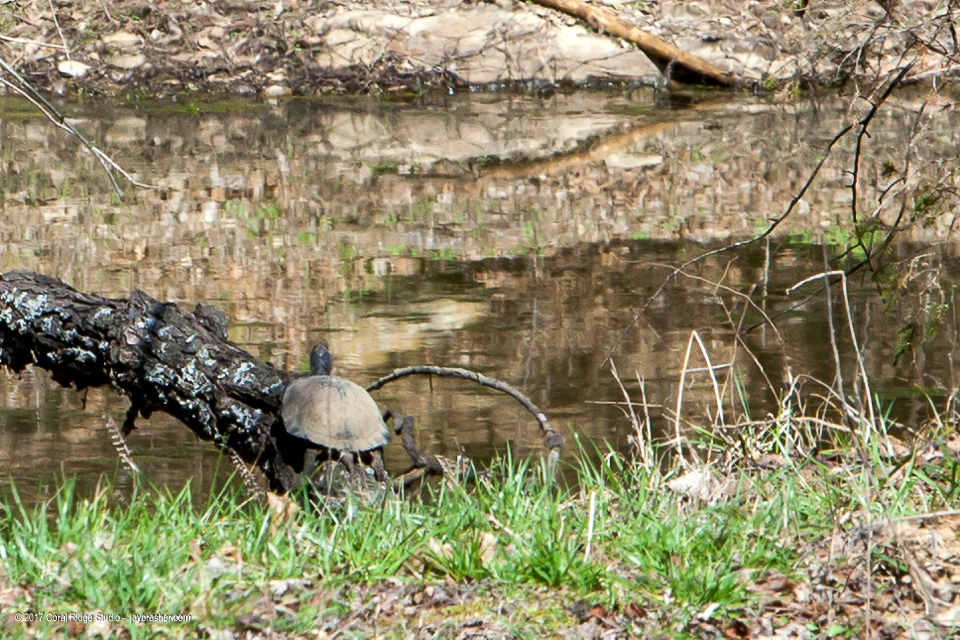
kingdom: Animalia
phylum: Chordata
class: Testudines
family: Emydidae
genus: Trachemys
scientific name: Trachemys scripta
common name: Slider
